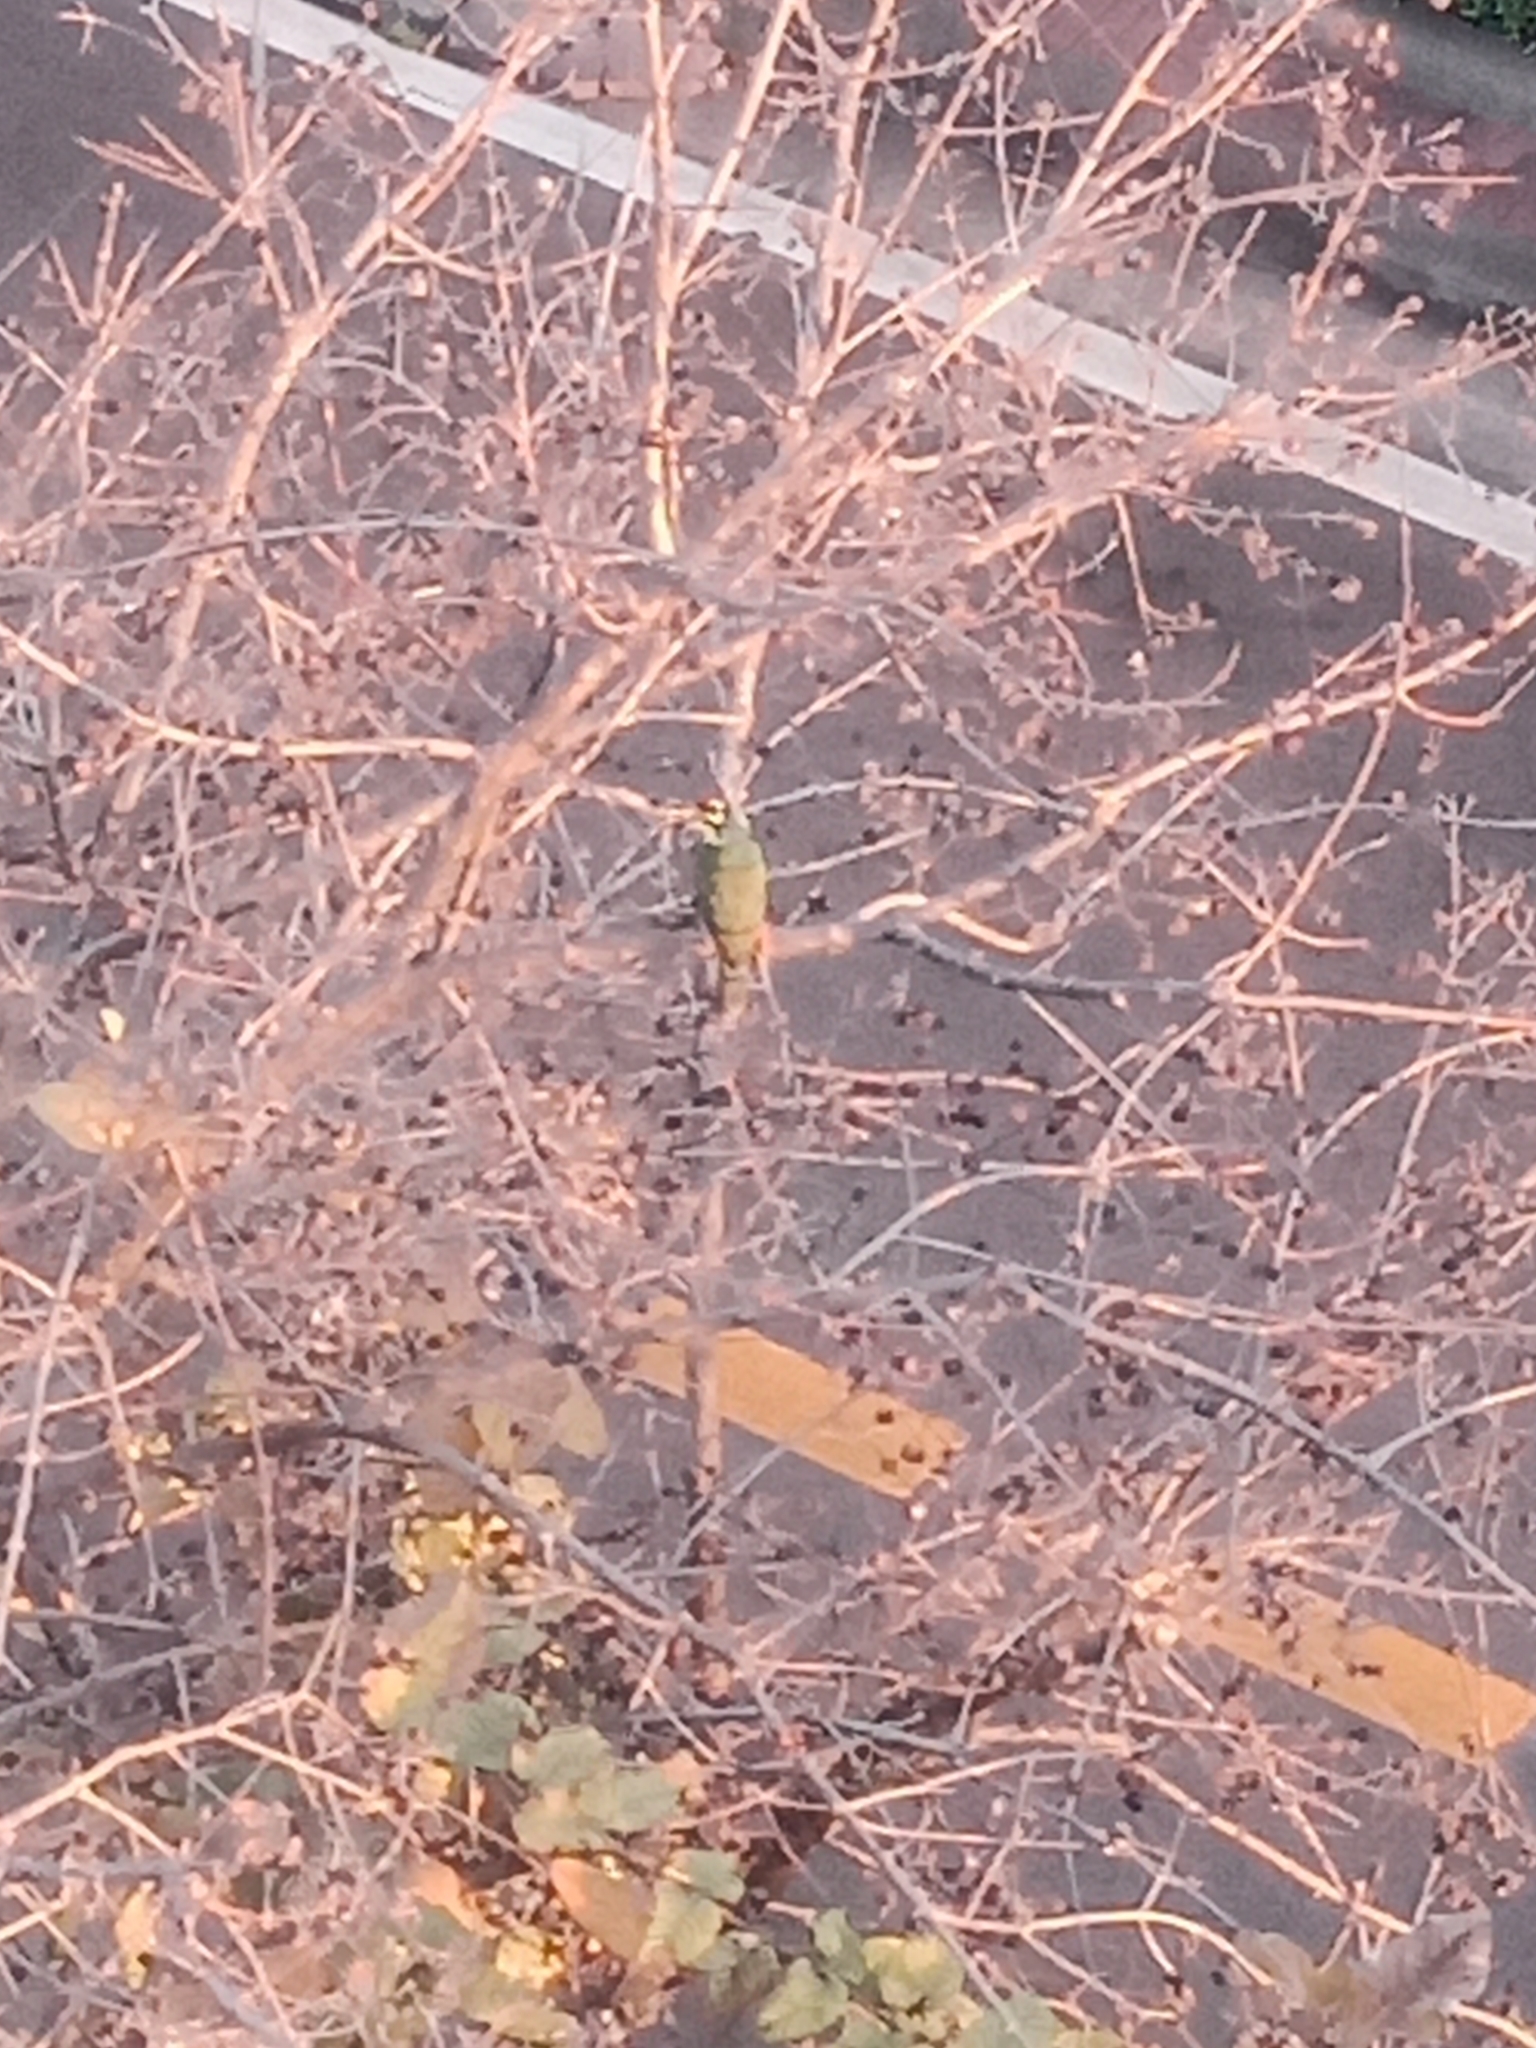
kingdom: Animalia
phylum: Chordata
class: Aves
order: Piciformes
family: Megalaimidae
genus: Psilopogon
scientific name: Psilopogon haemacephalus
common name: Coppersmith barbet
